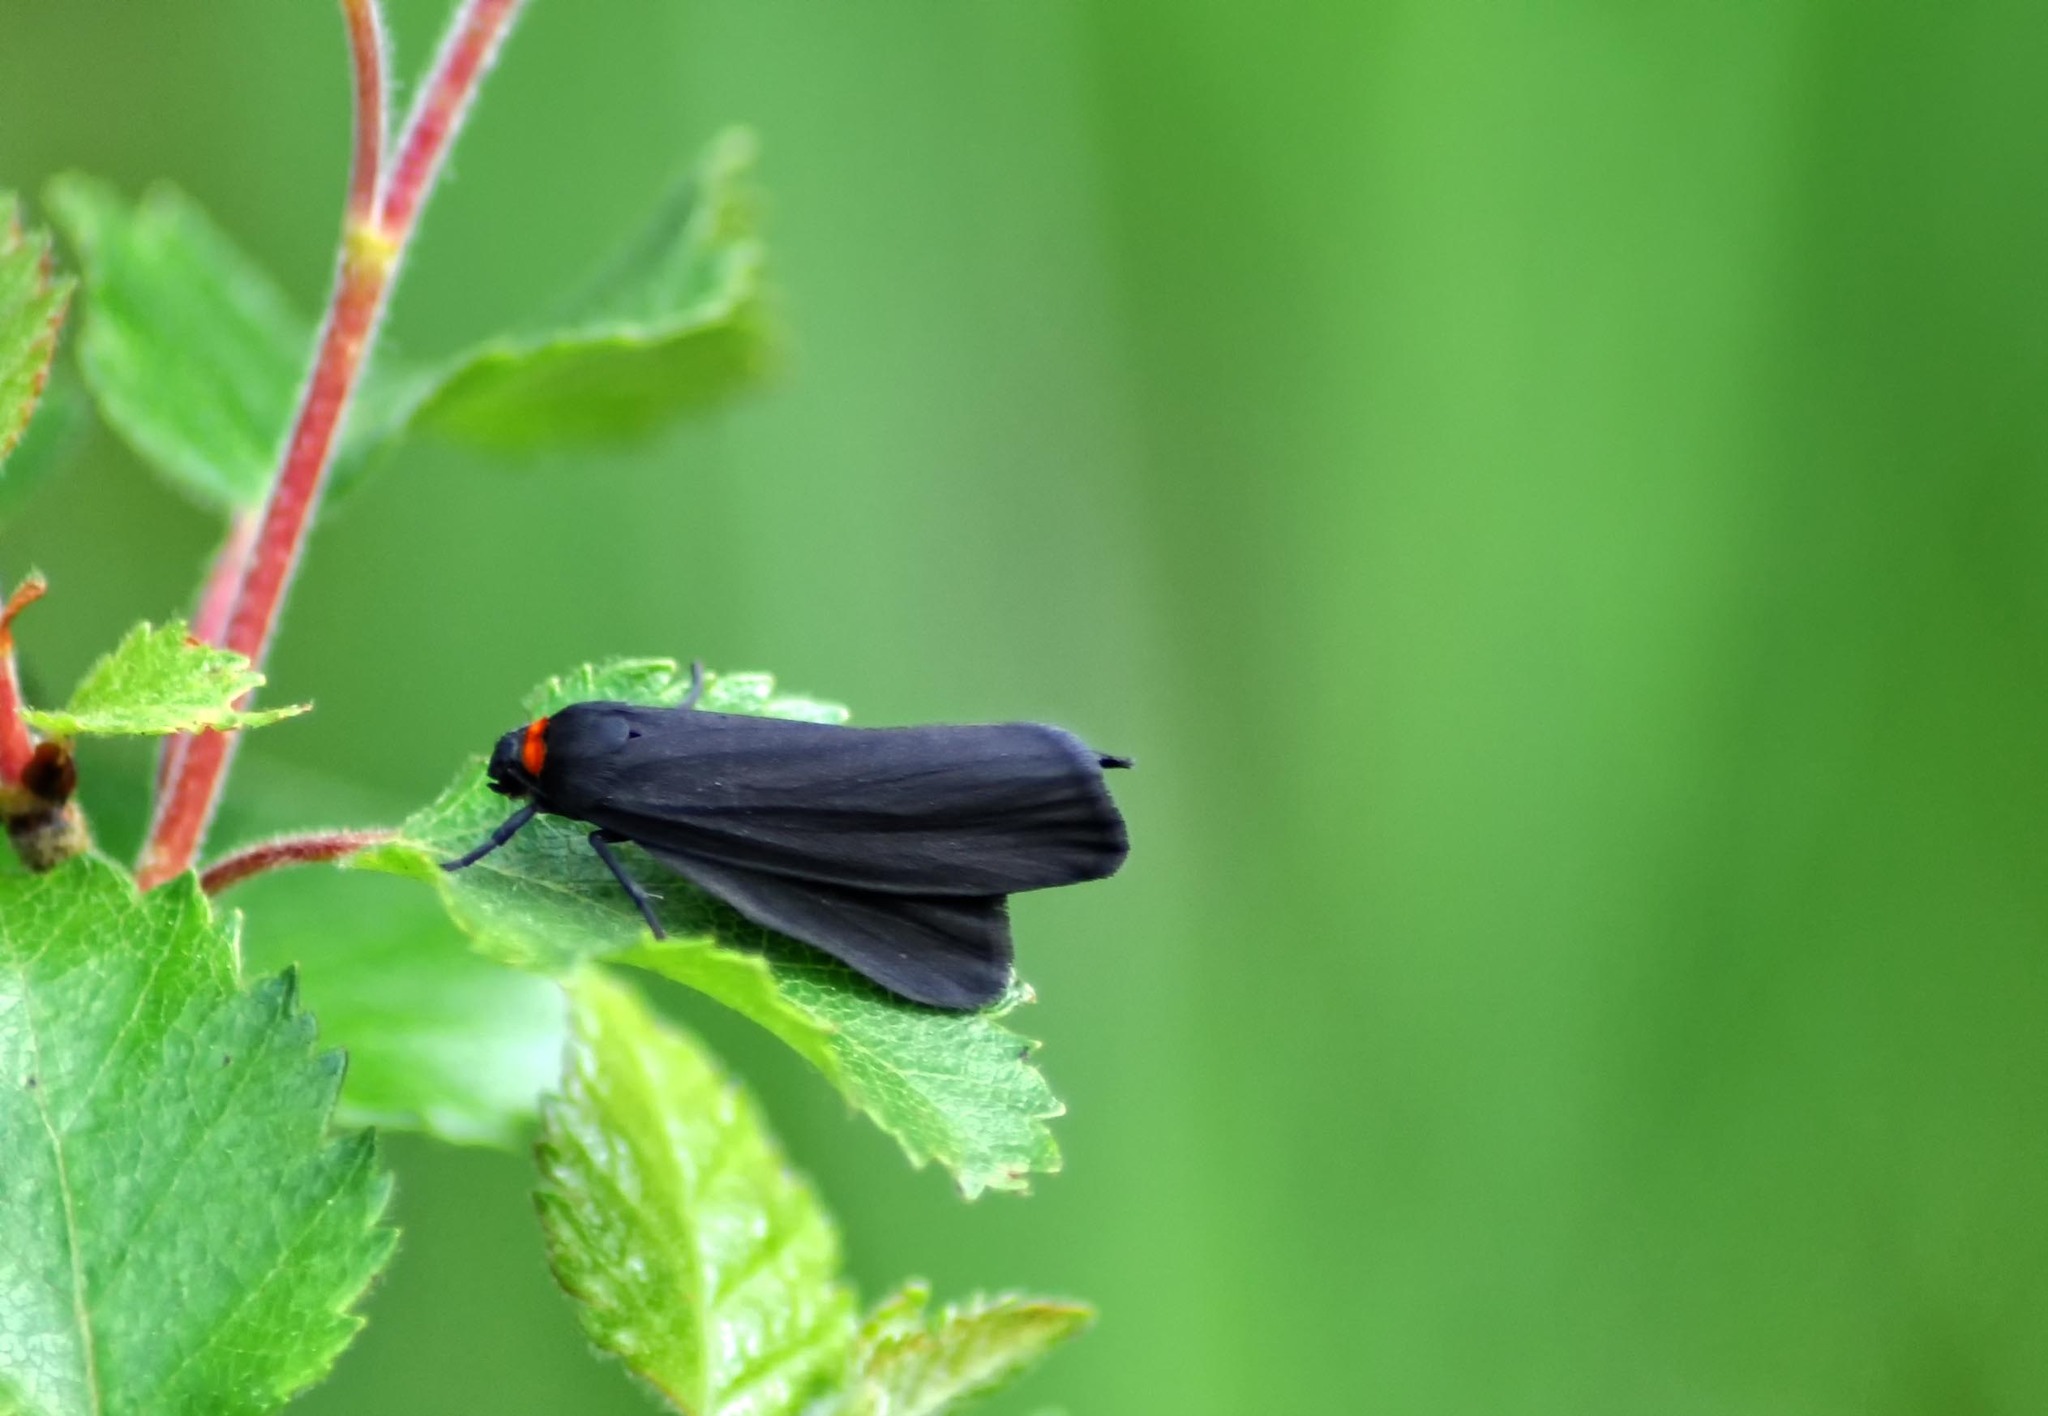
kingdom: Animalia
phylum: Arthropoda
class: Insecta
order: Lepidoptera
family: Erebidae
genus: Atolmis
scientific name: Atolmis rubricollis
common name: Red-necked footman
